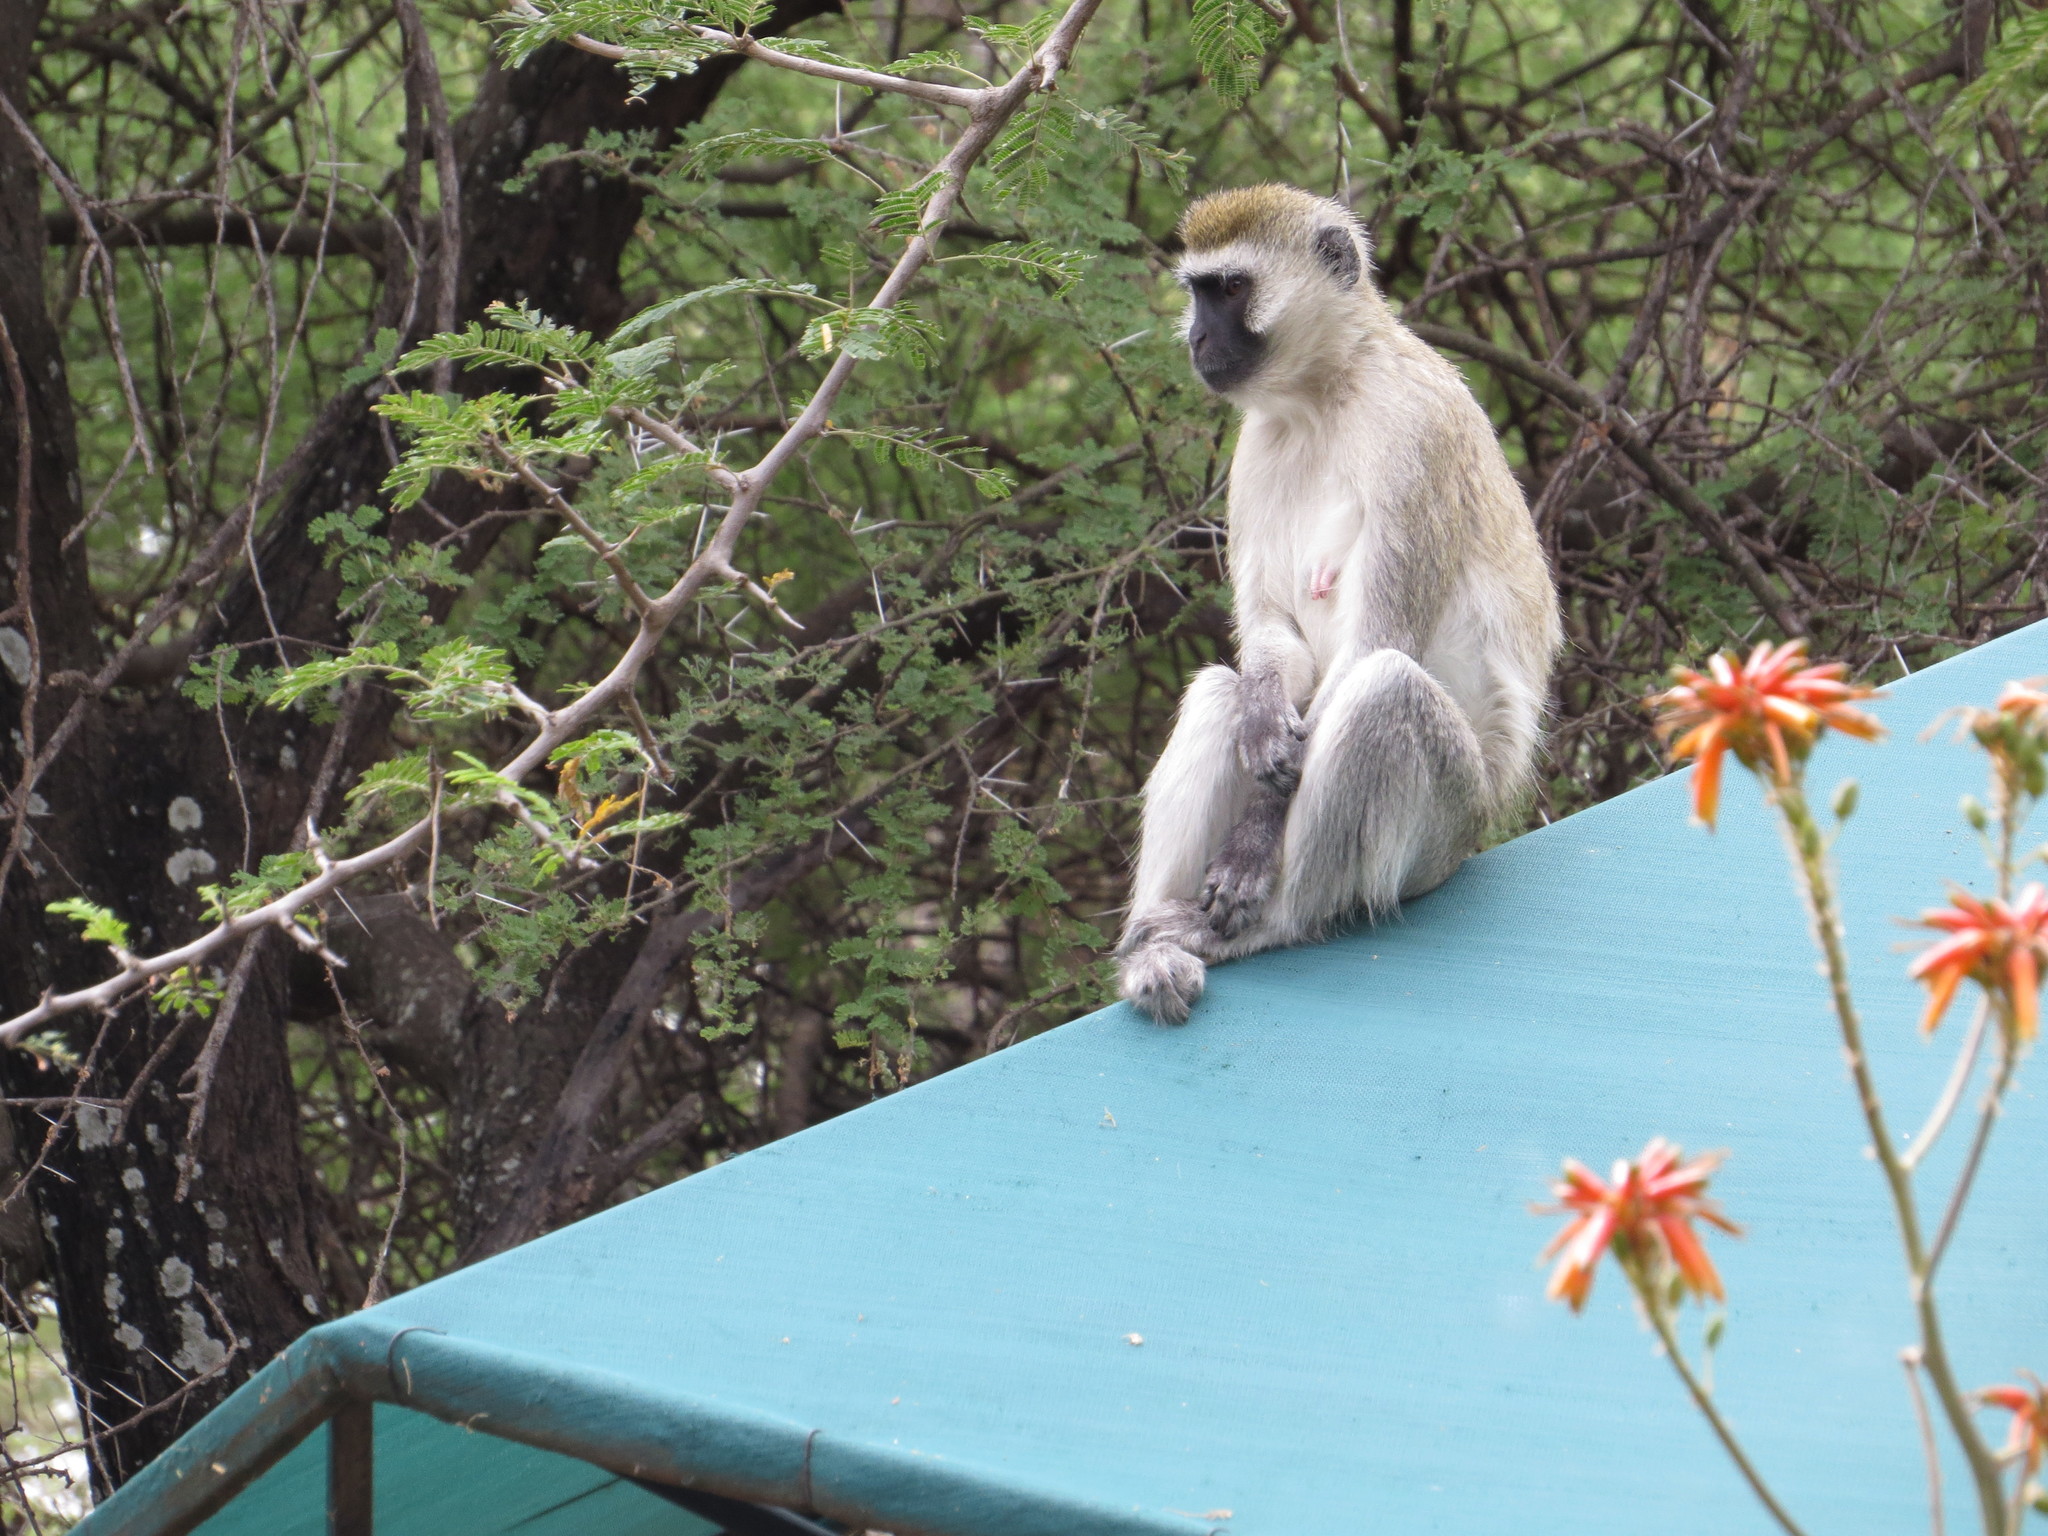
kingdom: Animalia
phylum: Chordata
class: Mammalia
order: Primates
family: Cercopithecidae
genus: Chlorocebus
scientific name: Chlorocebus pygerythrus
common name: Vervet monkey
